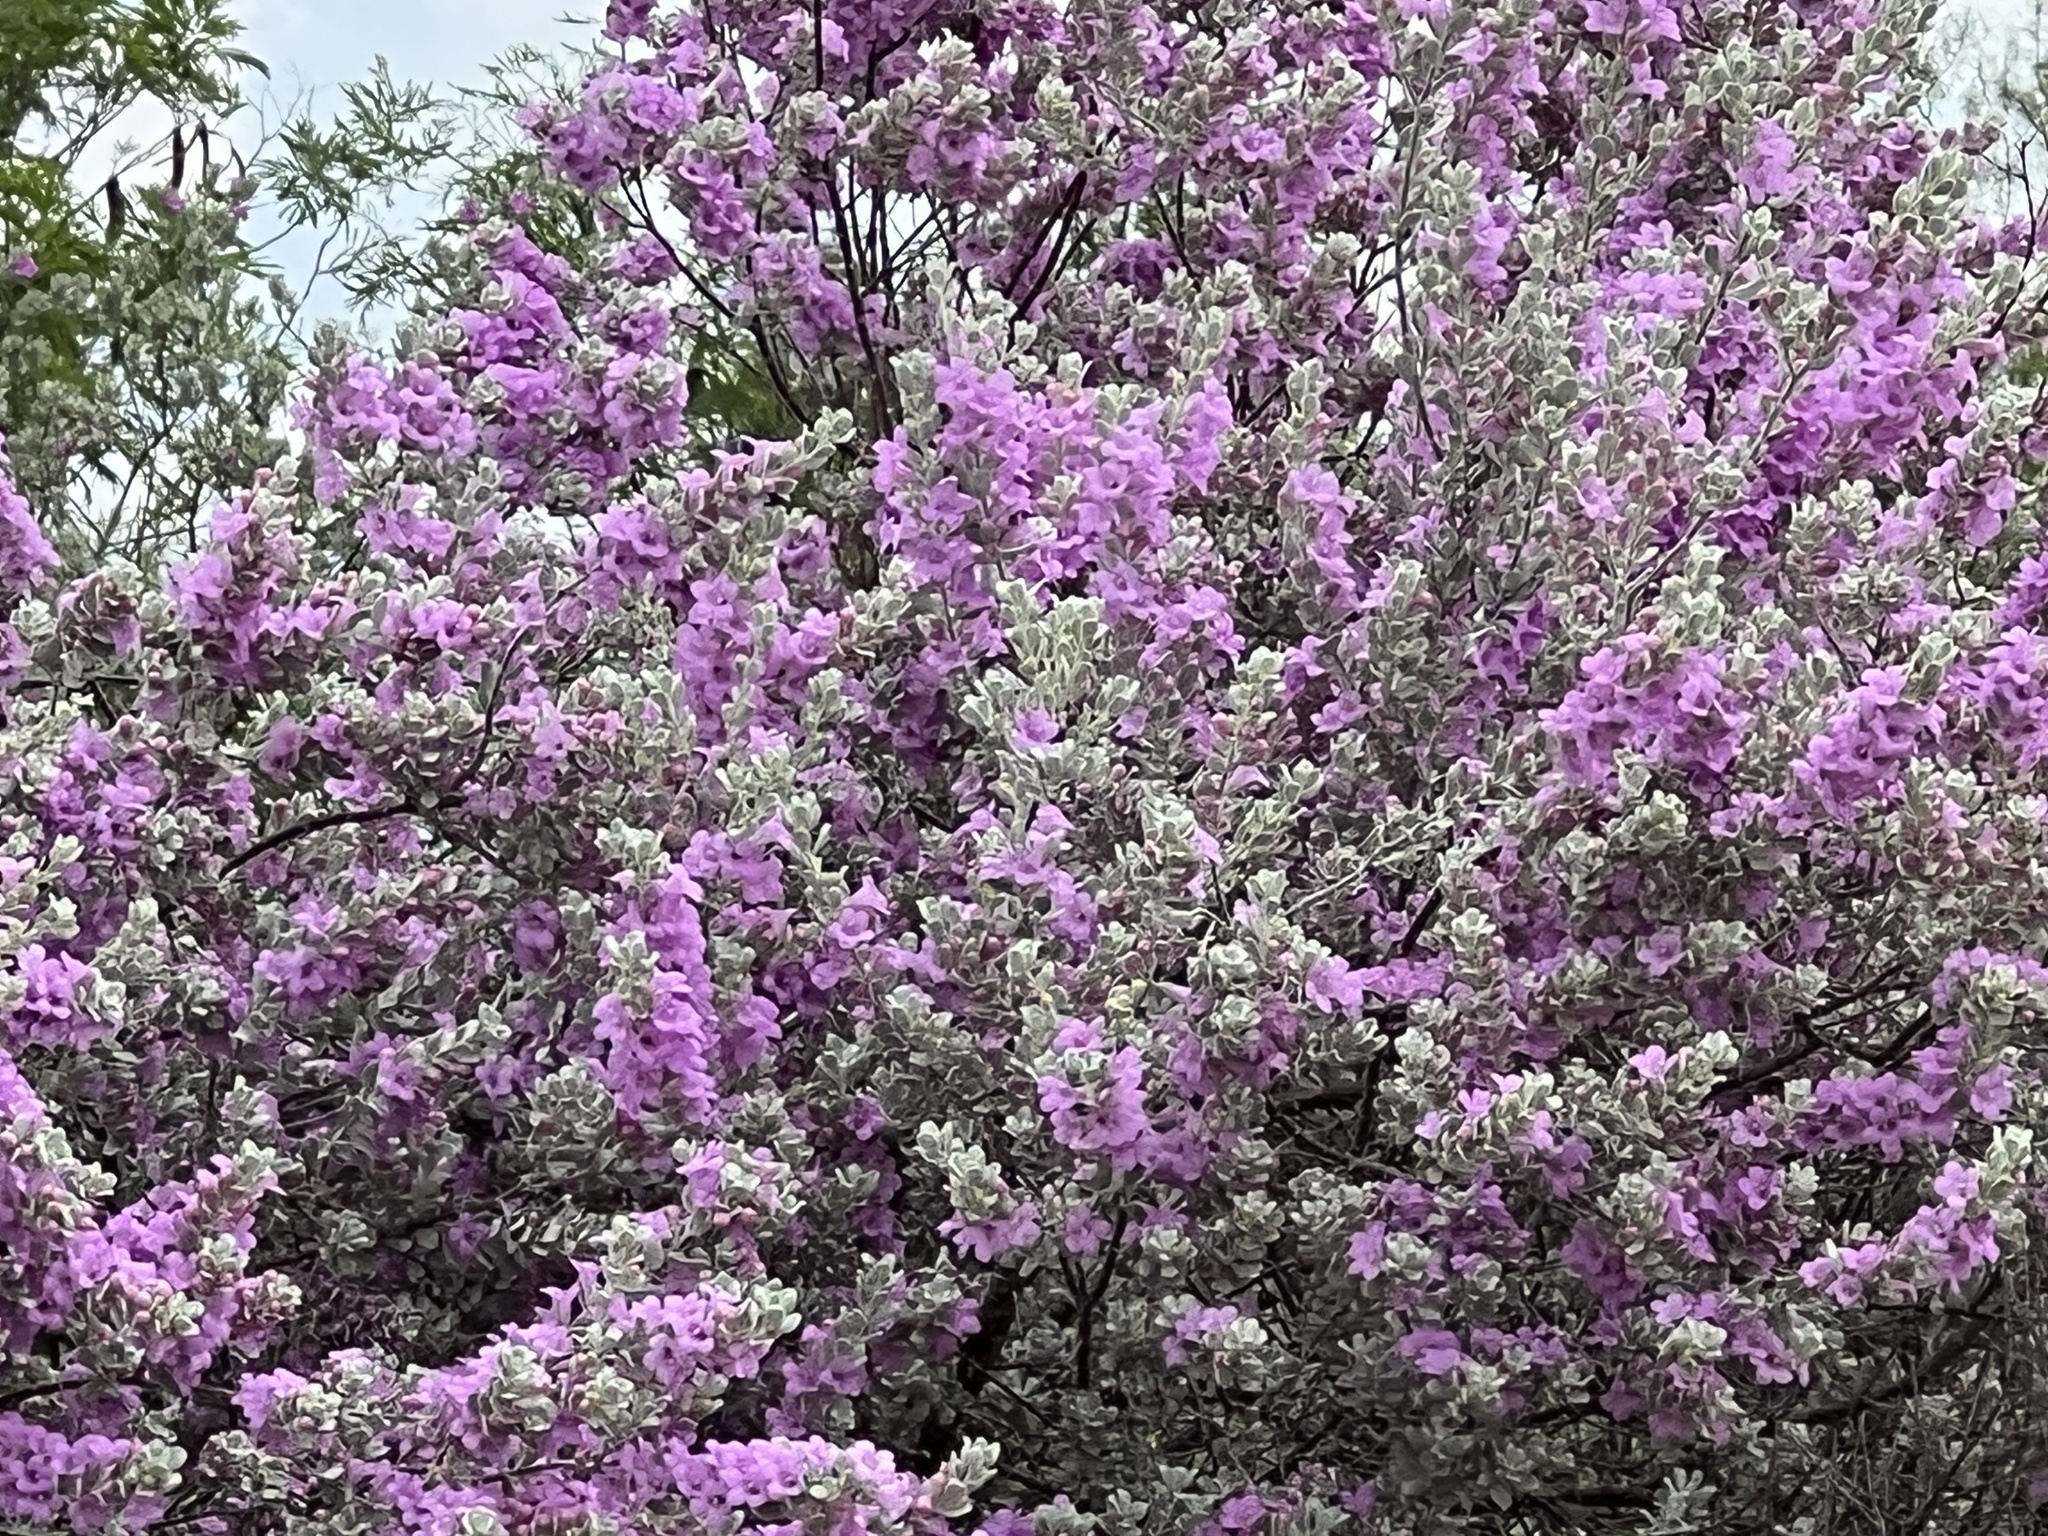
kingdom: Plantae
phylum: Tracheophyta
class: Magnoliopsida
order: Lamiales
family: Scrophulariaceae
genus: Leucophyllum
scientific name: Leucophyllum frutescens
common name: Texas silverleaf
